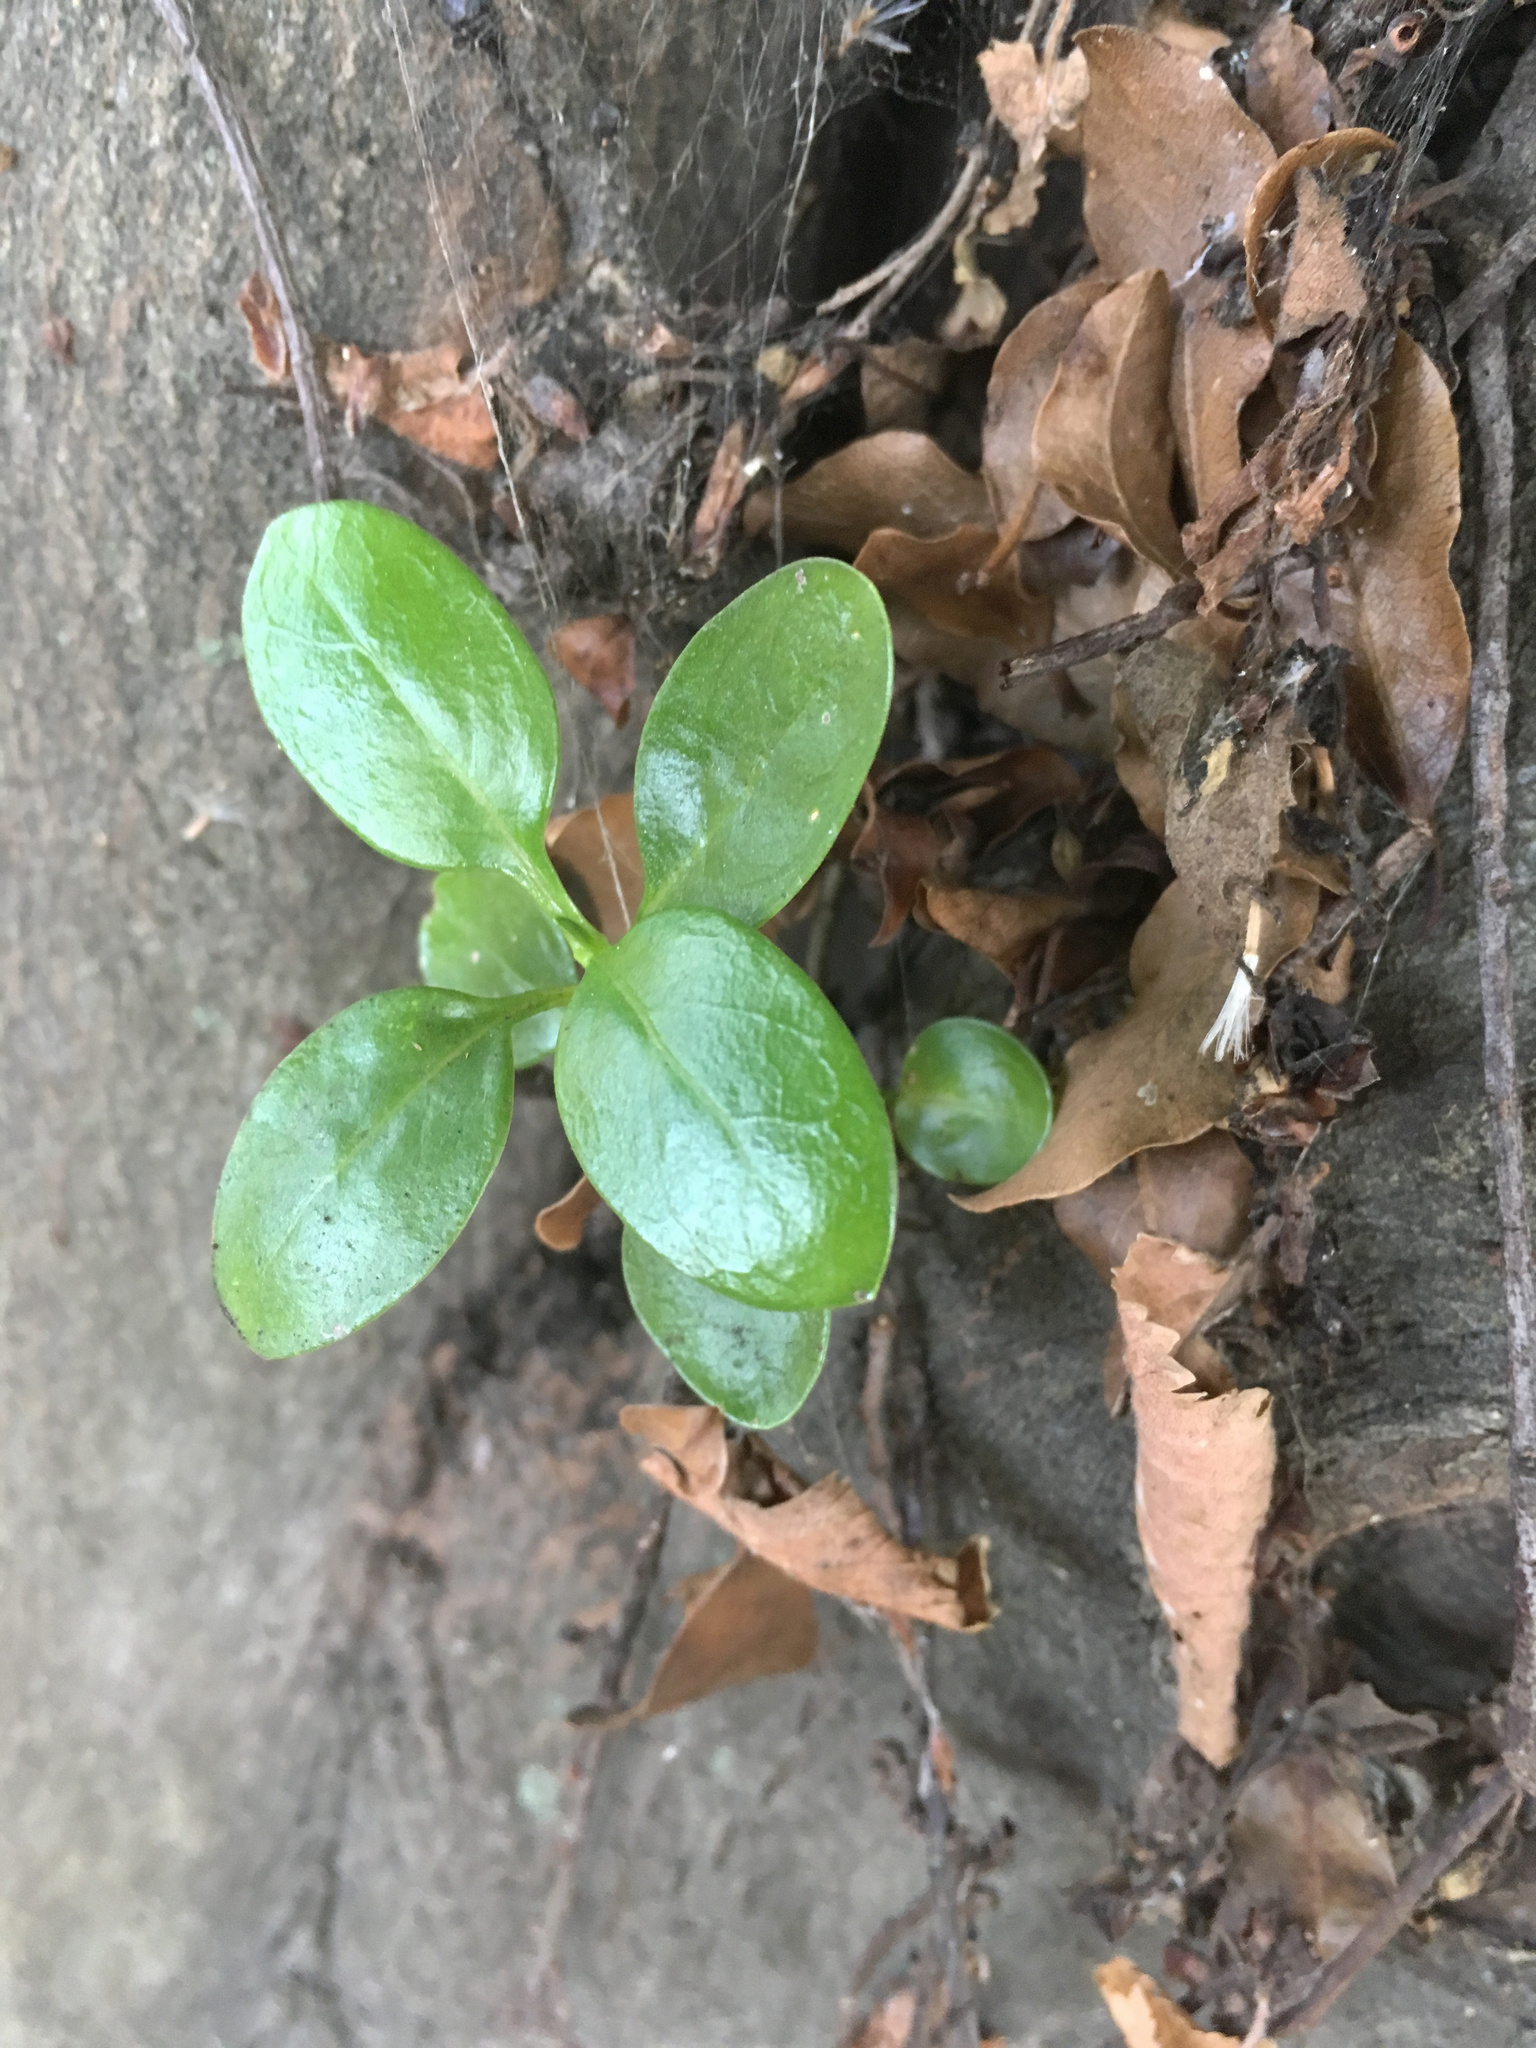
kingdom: Plantae
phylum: Tracheophyta
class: Magnoliopsida
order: Gentianales
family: Rubiaceae
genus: Coprosma
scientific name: Coprosma repens
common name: Tree bedstraw
